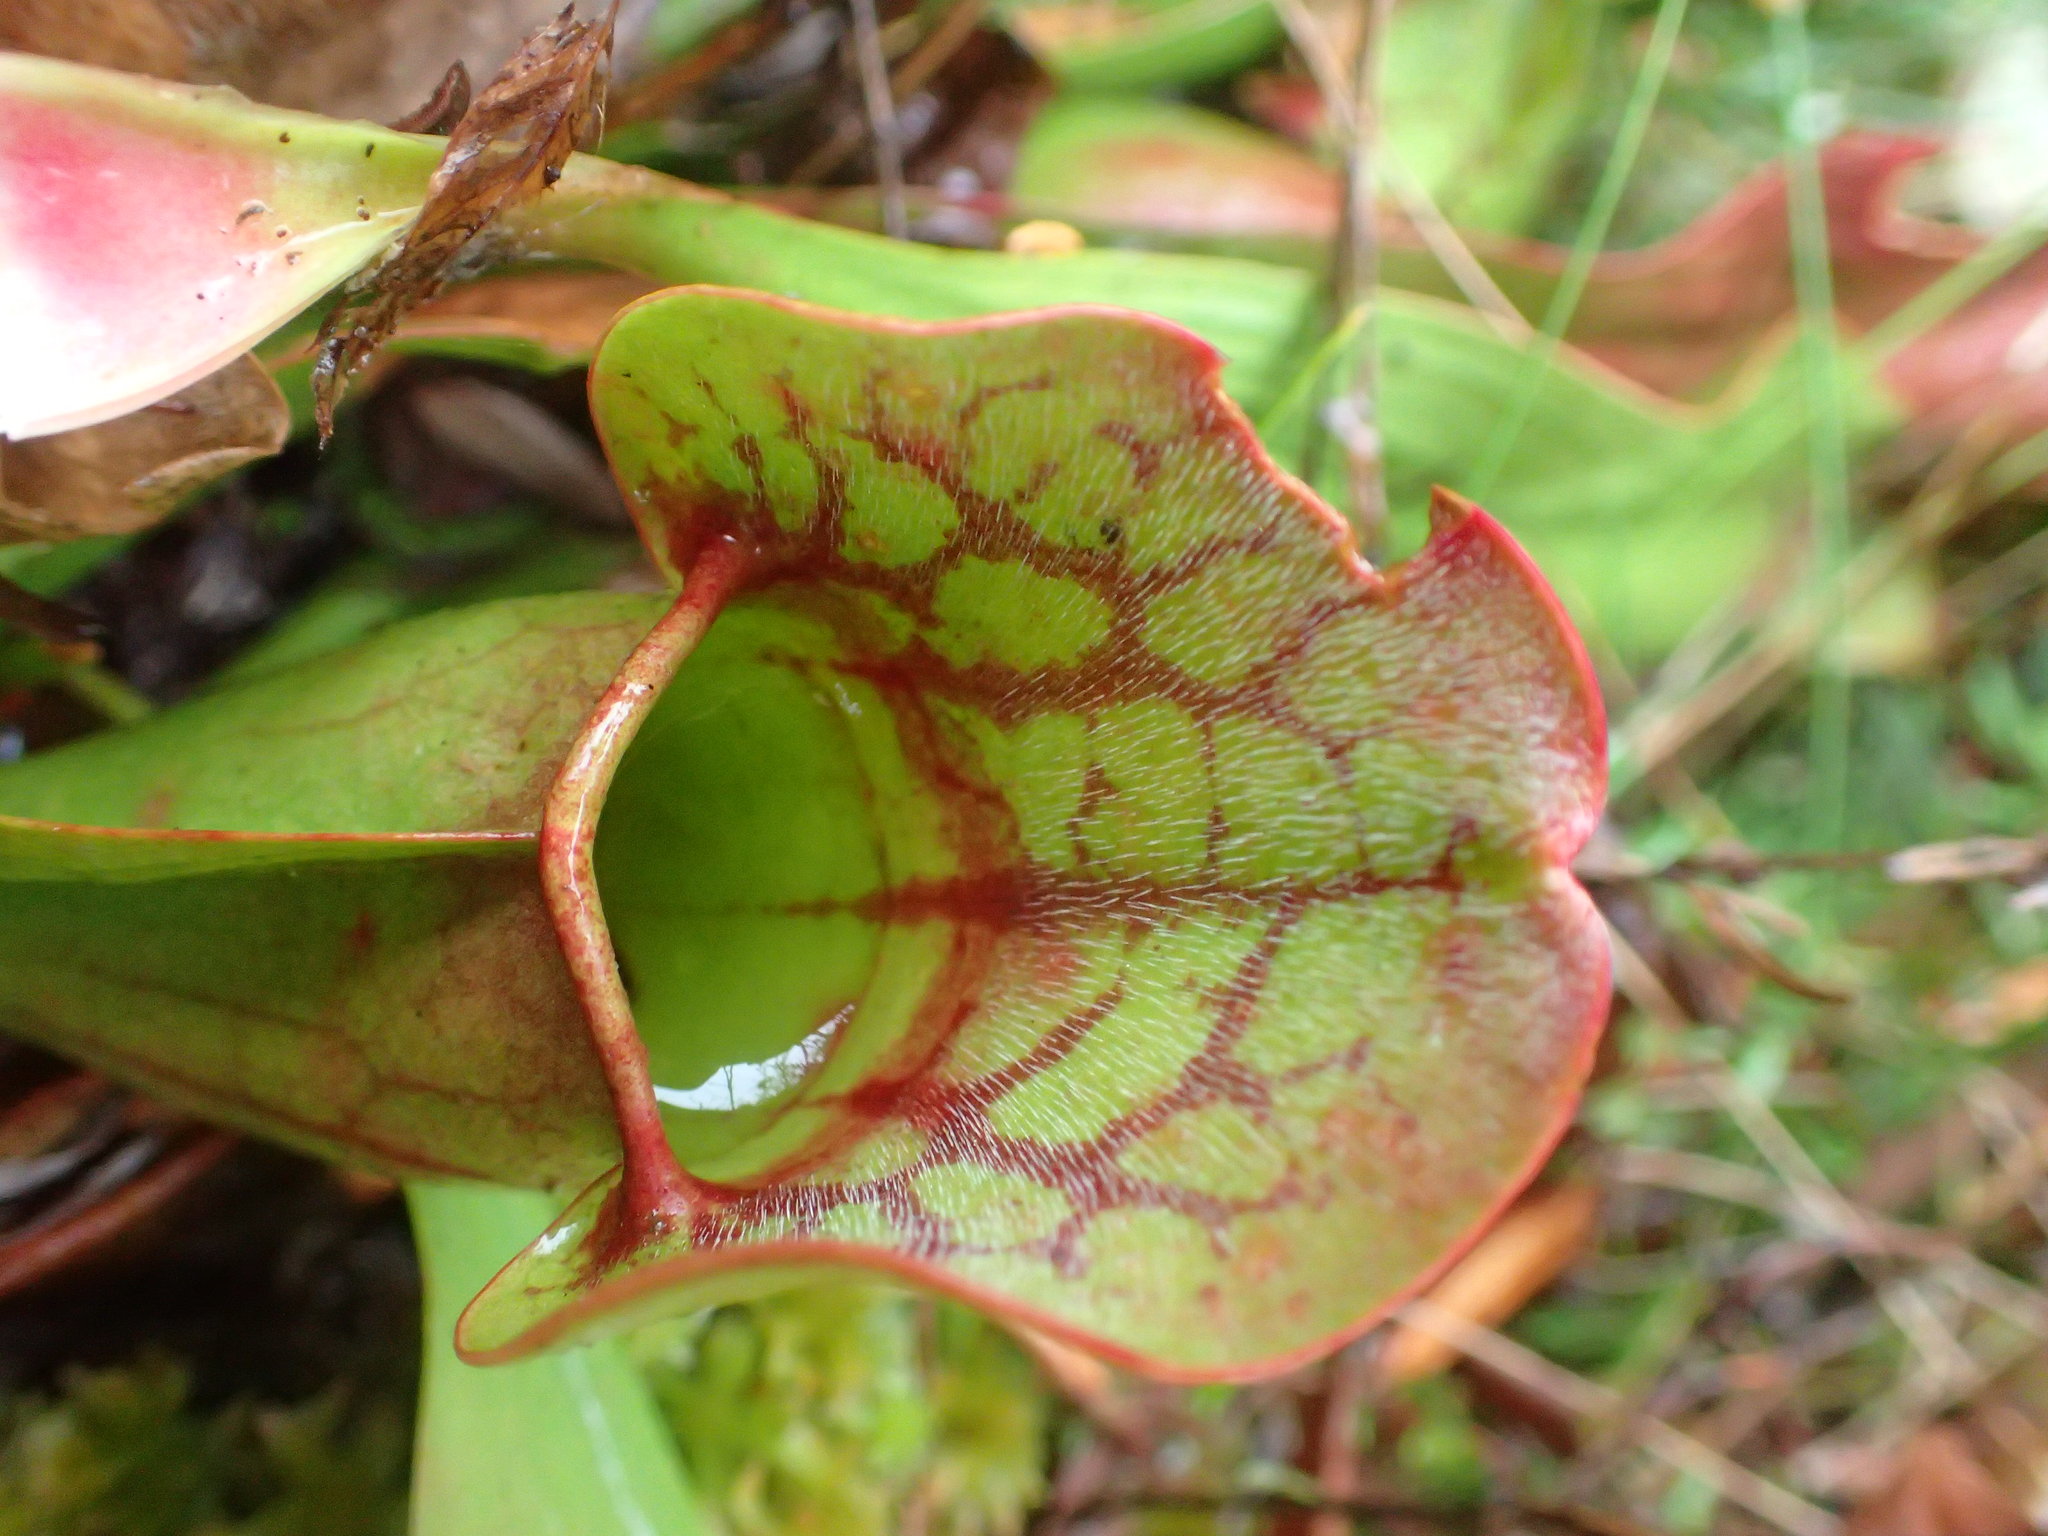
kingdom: Plantae
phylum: Tracheophyta
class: Magnoliopsida
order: Ericales
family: Sarraceniaceae
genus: Sarracenia
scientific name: Sarracenia purpurea
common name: Pitcherplant
